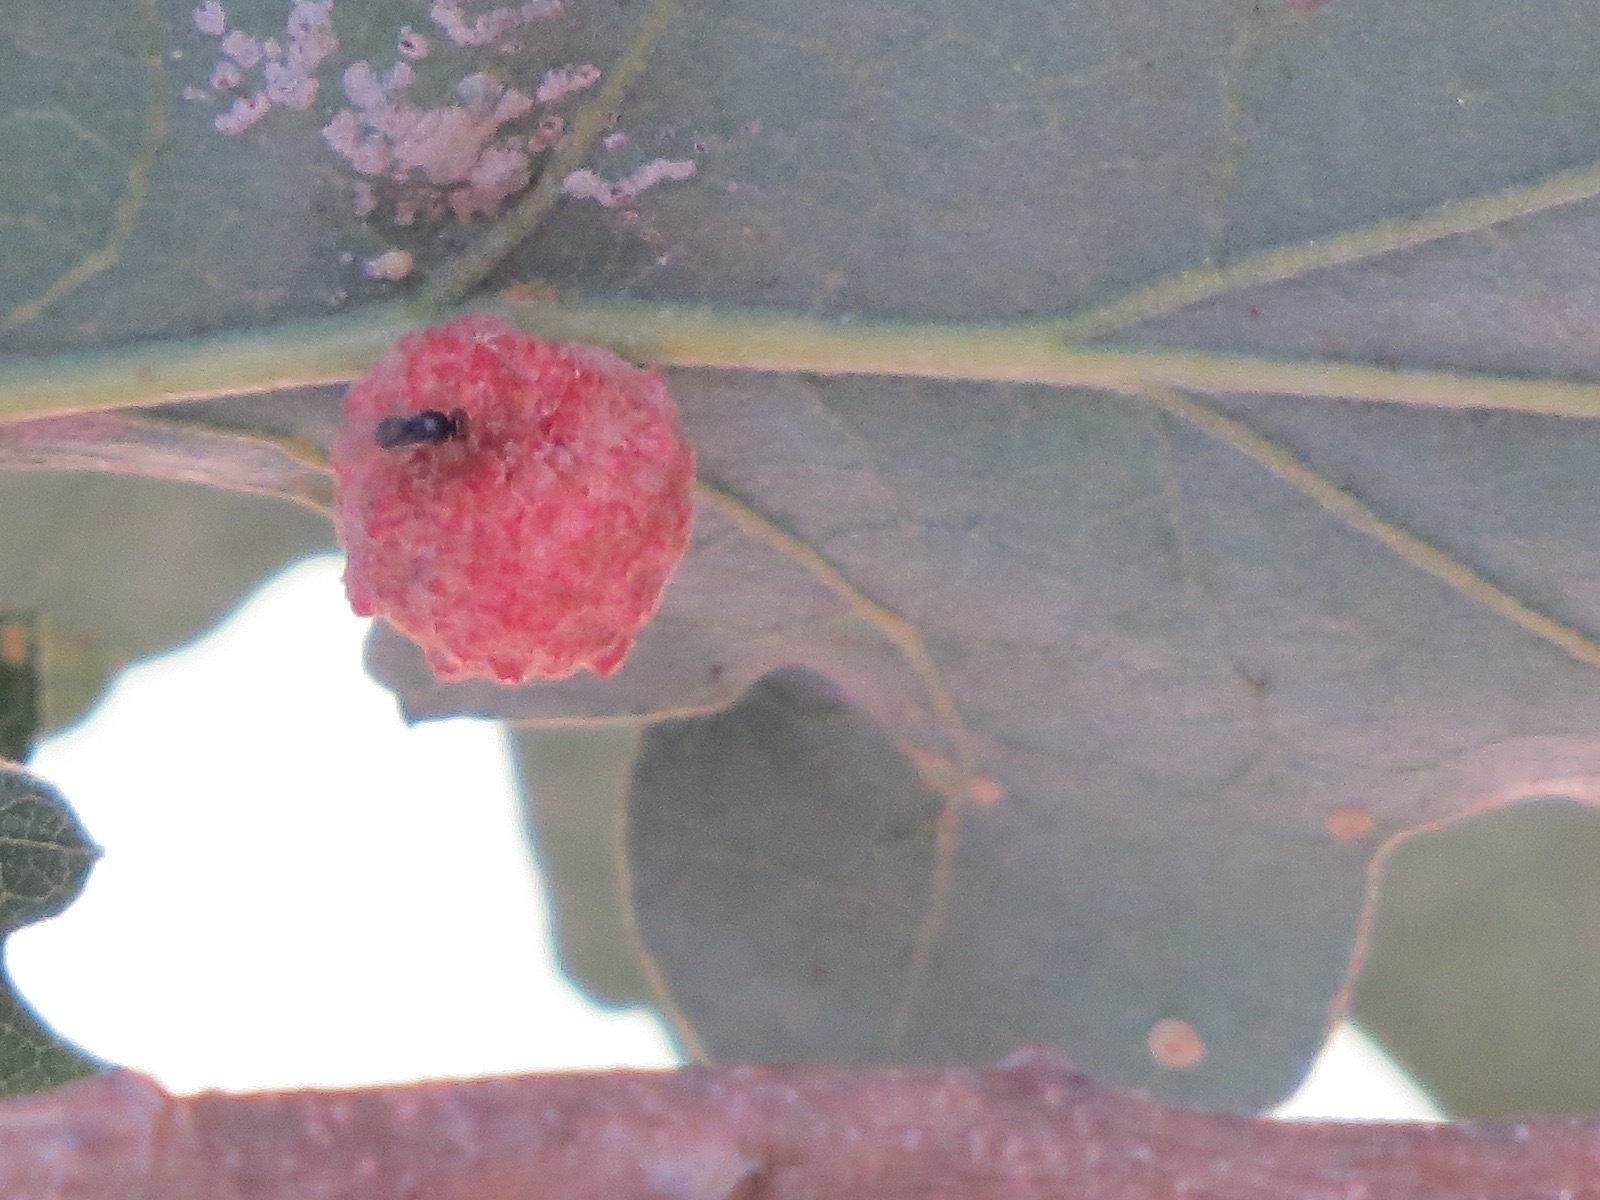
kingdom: Animalia
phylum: Arthropoda
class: Insecta
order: Hymenoptera
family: Cynipidae
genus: Cynips
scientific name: Cynips conspicua
